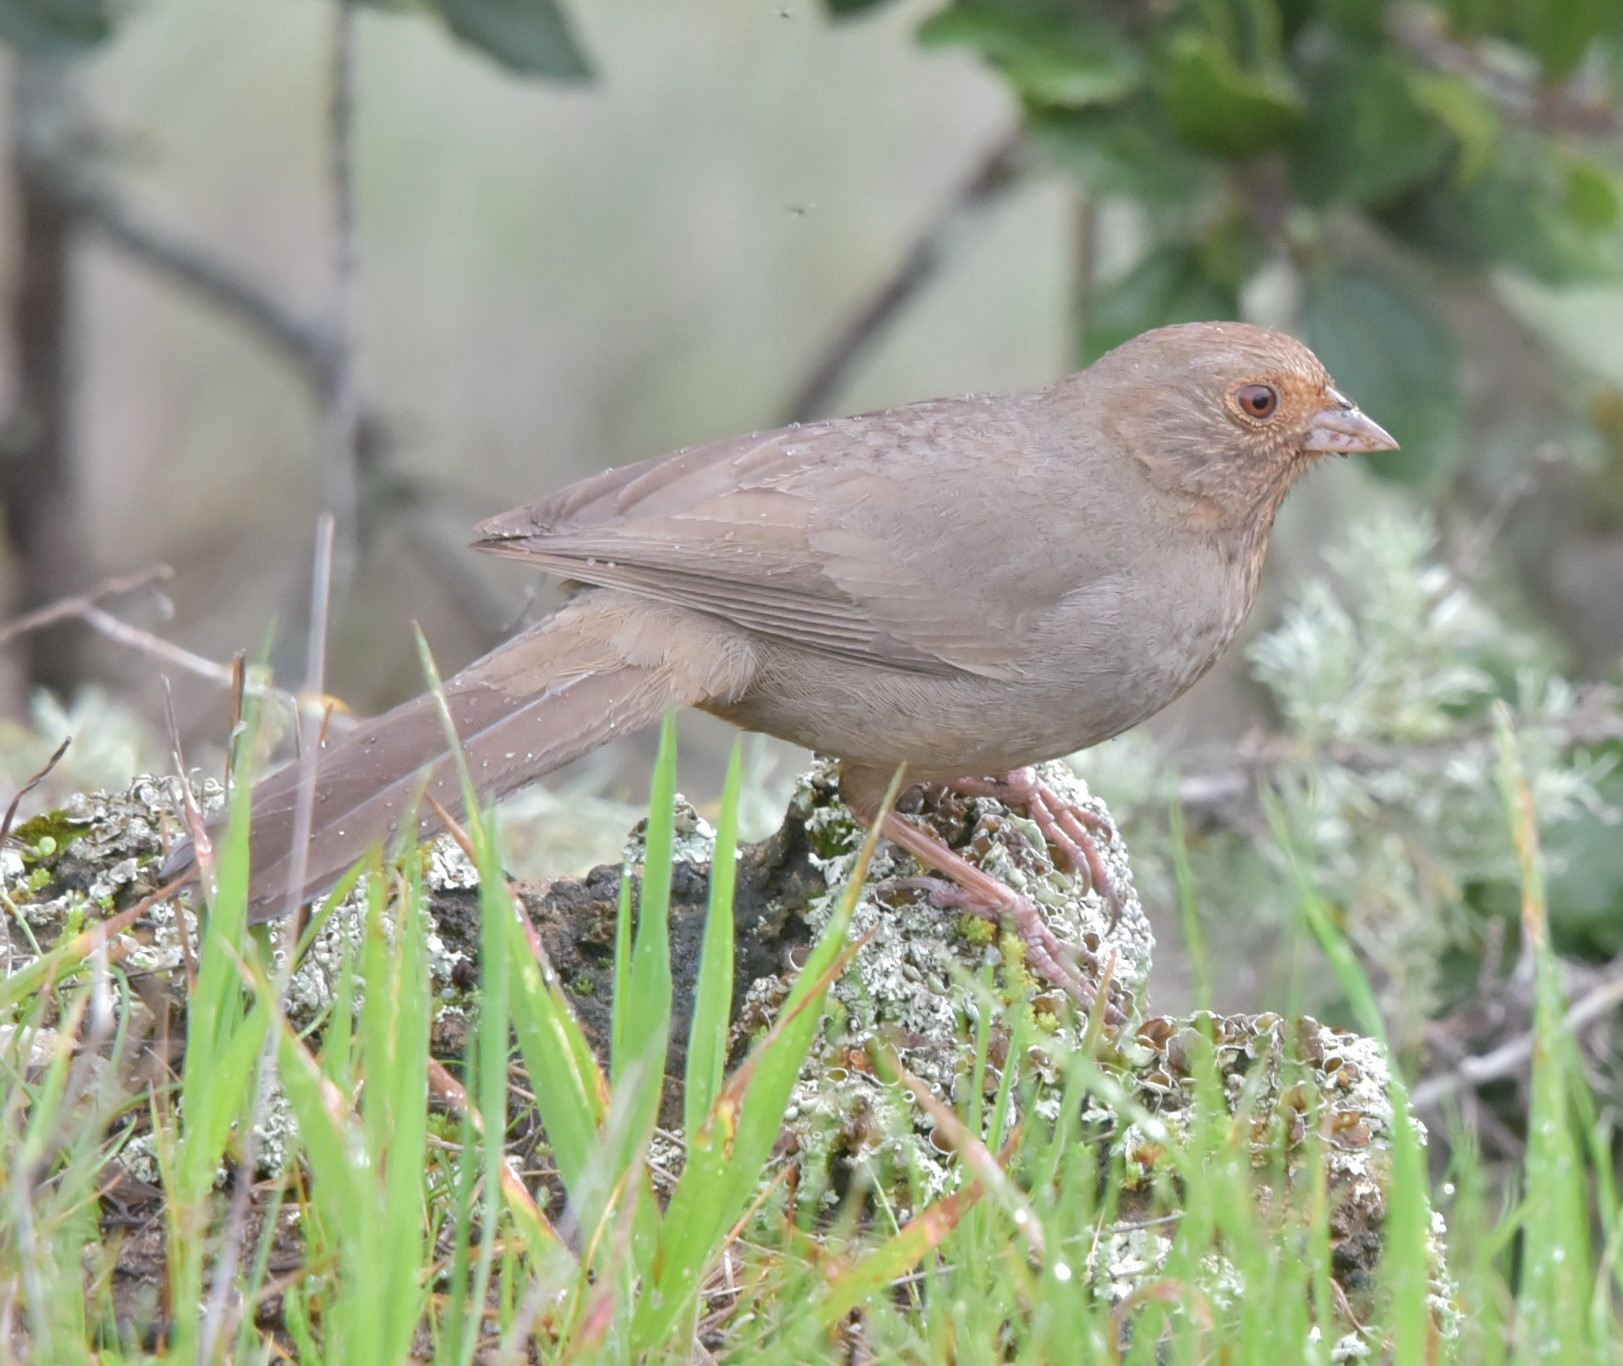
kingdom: Animalia
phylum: Chordata
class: Aves
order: Passeriformes
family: Passerellidae
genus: Melozone
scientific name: Melozone crissalis
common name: California towhee
